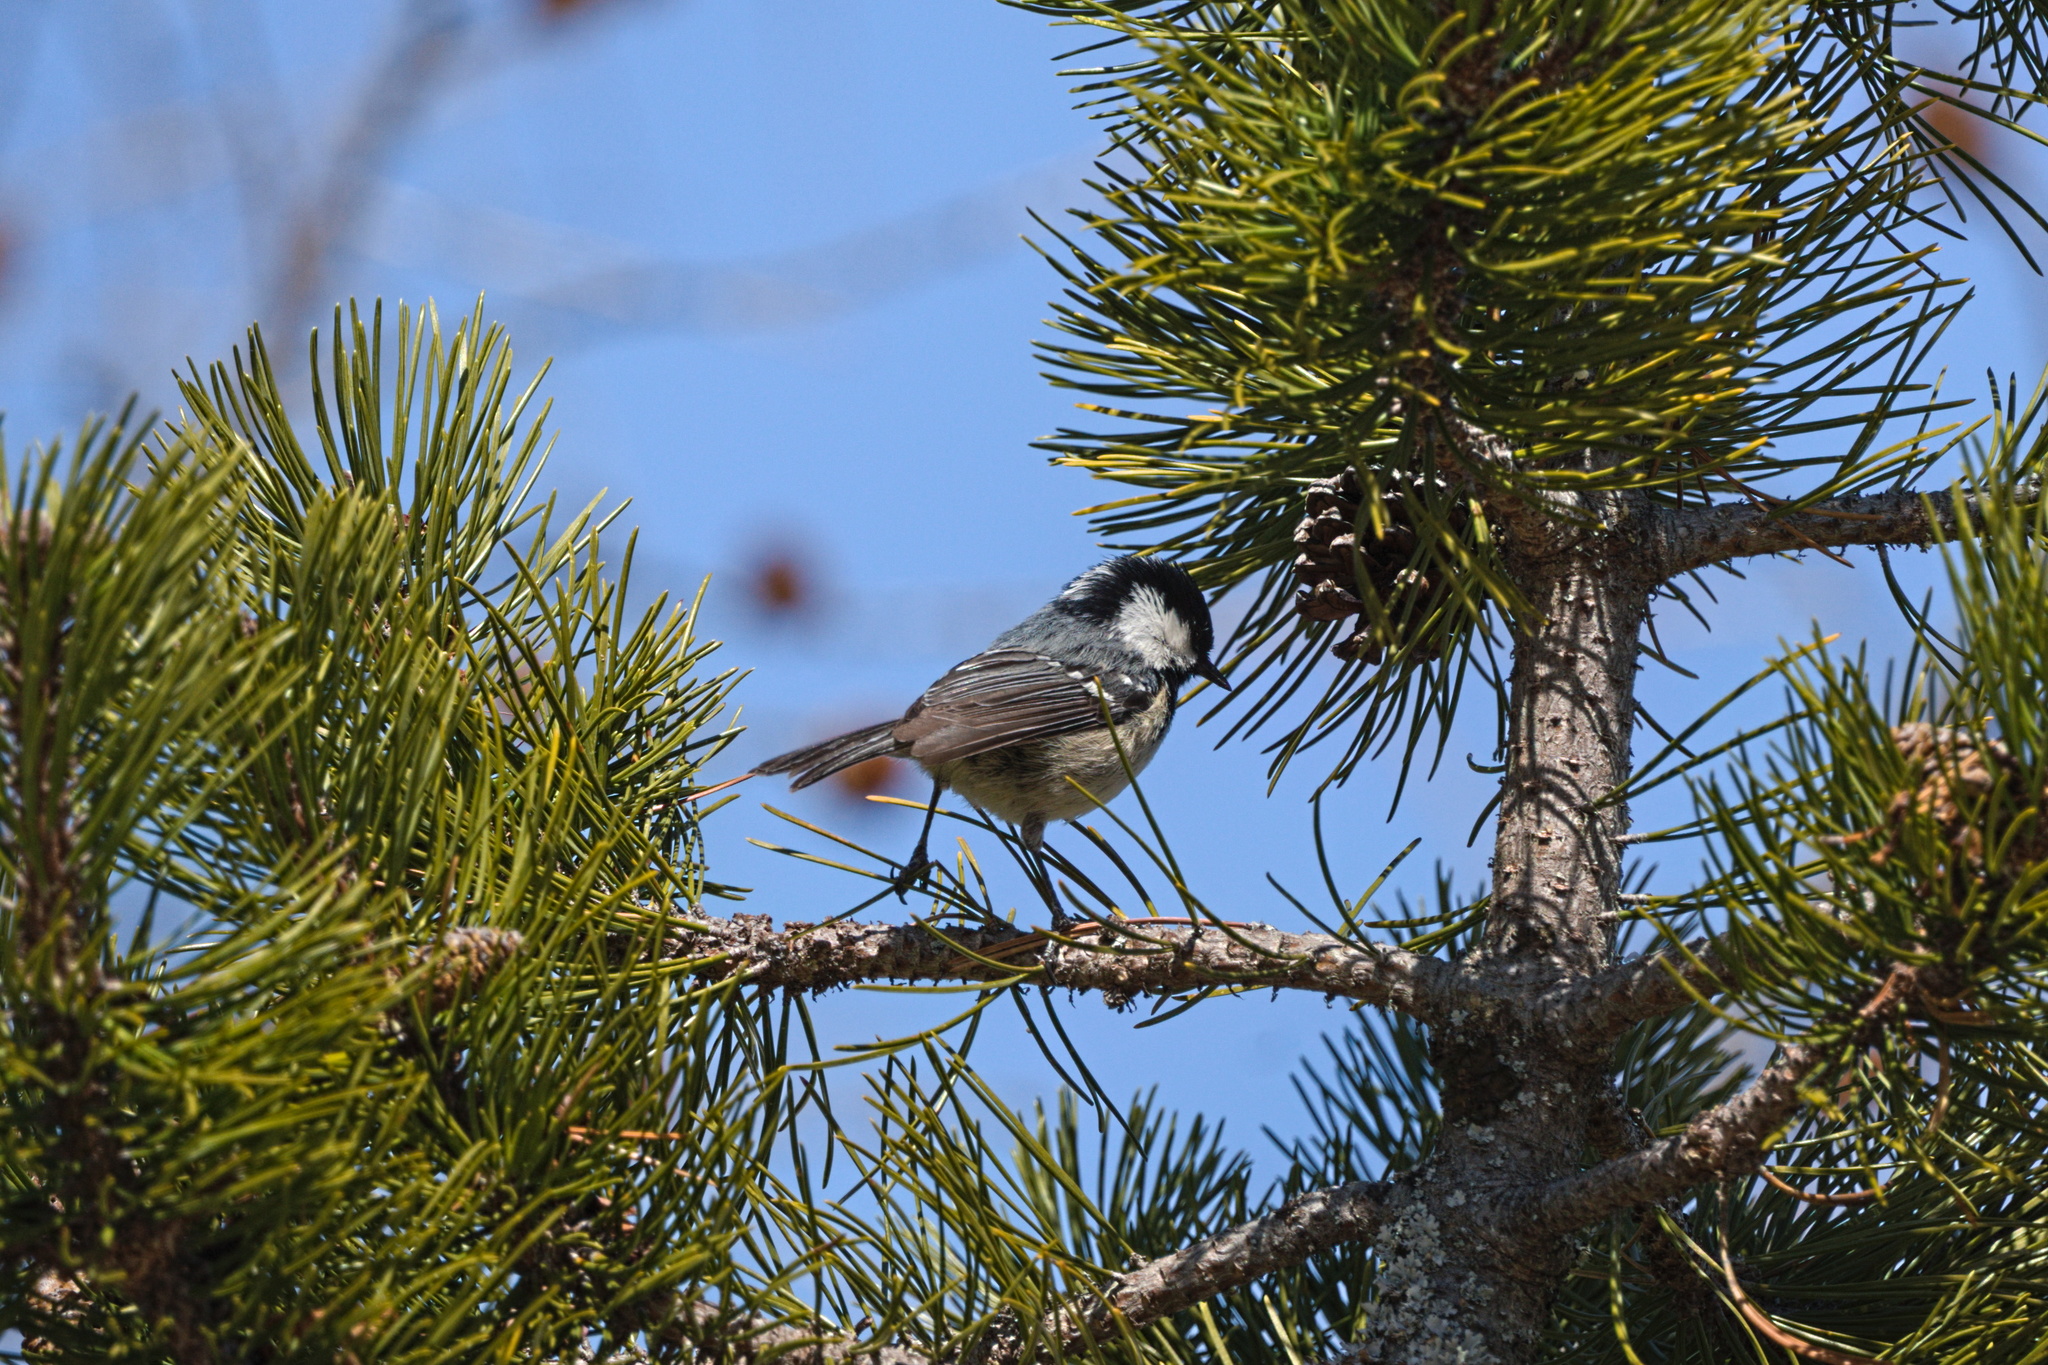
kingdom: Animalia
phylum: Chordata
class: Aves
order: Passeriformes
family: Paridae
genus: Periparus
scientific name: Periparus ater
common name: Coal tit
